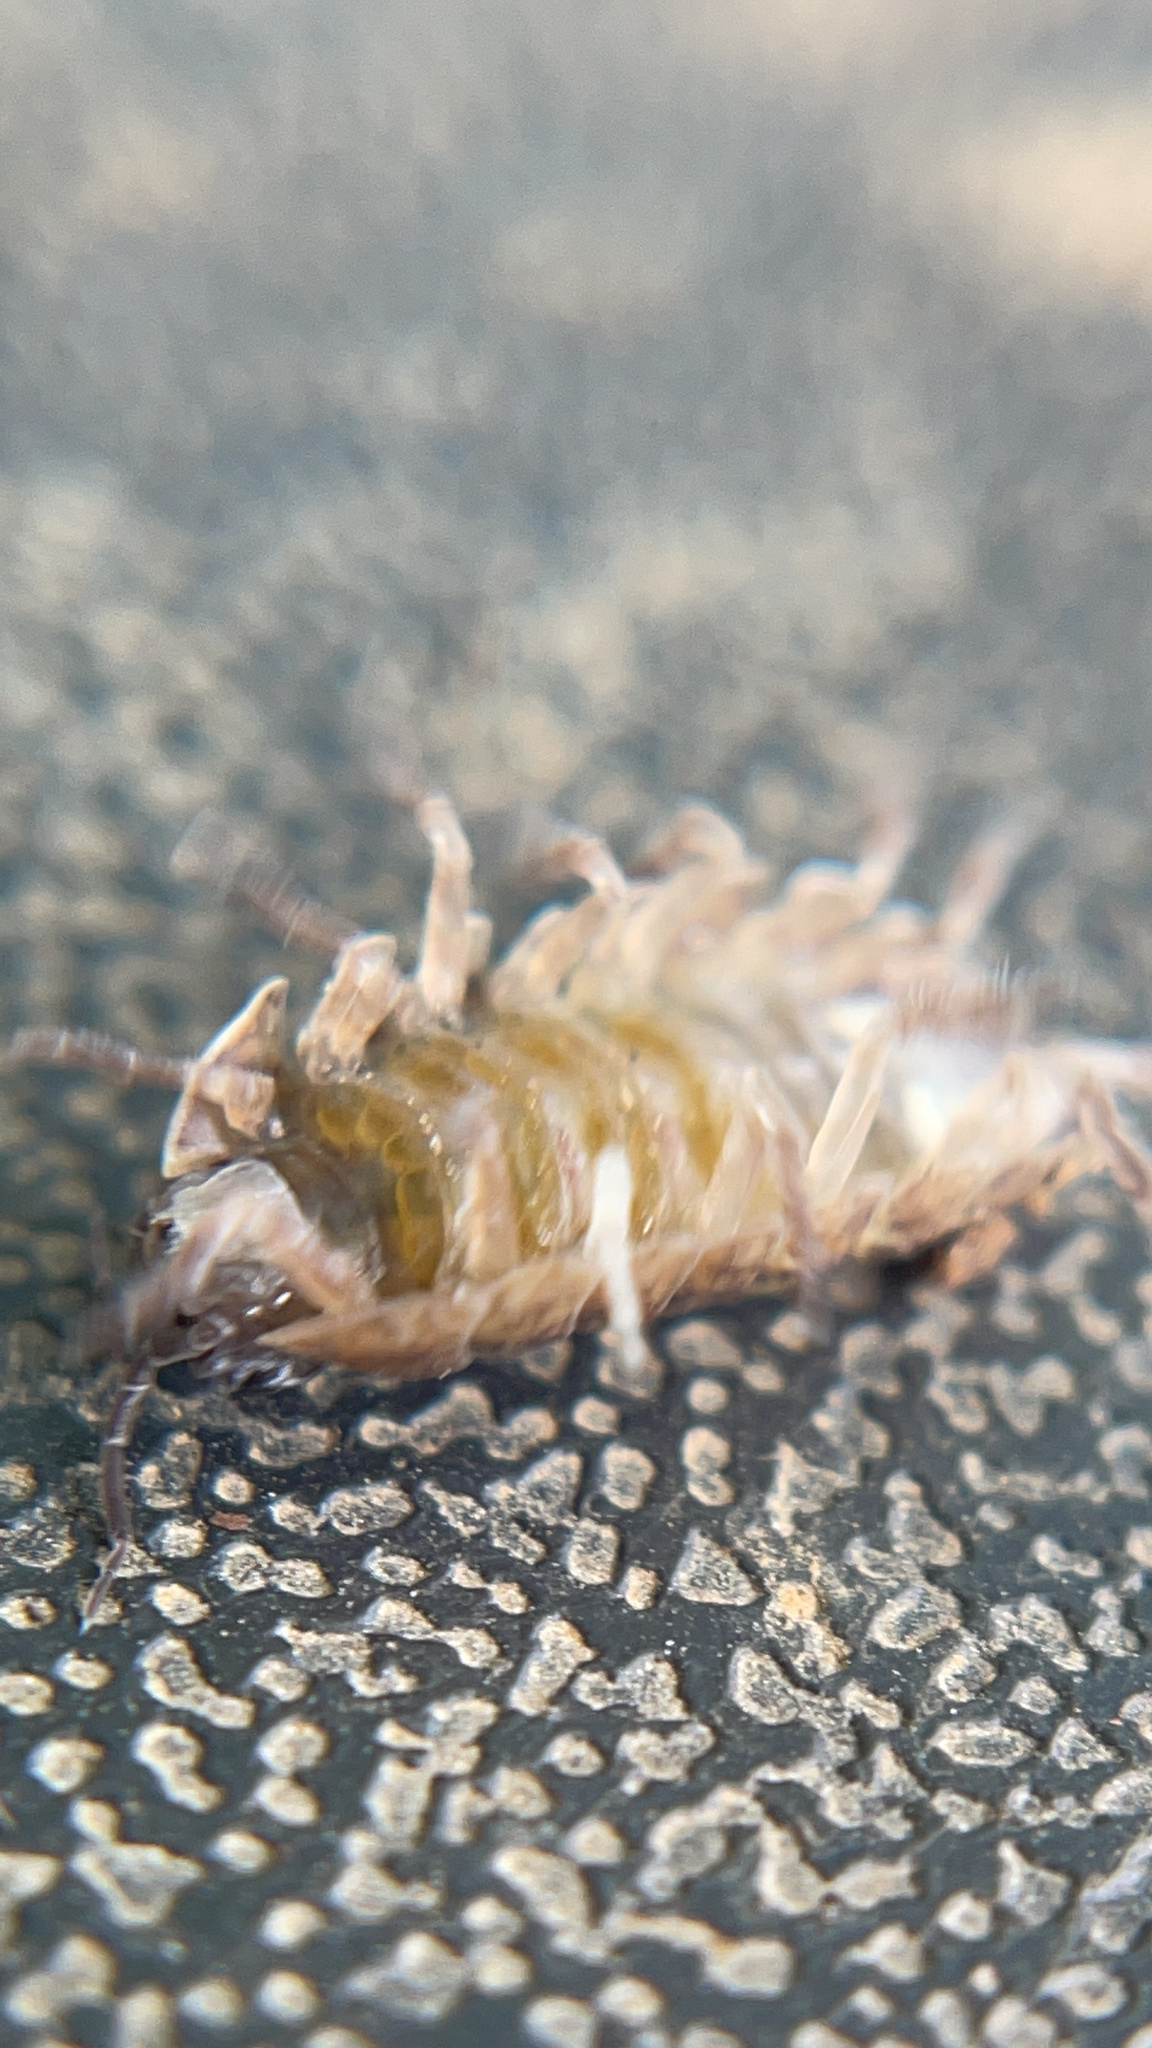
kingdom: Animalia
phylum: Arthropoda
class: Malacostraca
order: Isopoda
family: Armadillidiidae
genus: Armadillidium
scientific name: Armadillidium vulgare
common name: Common pill woodlouse
